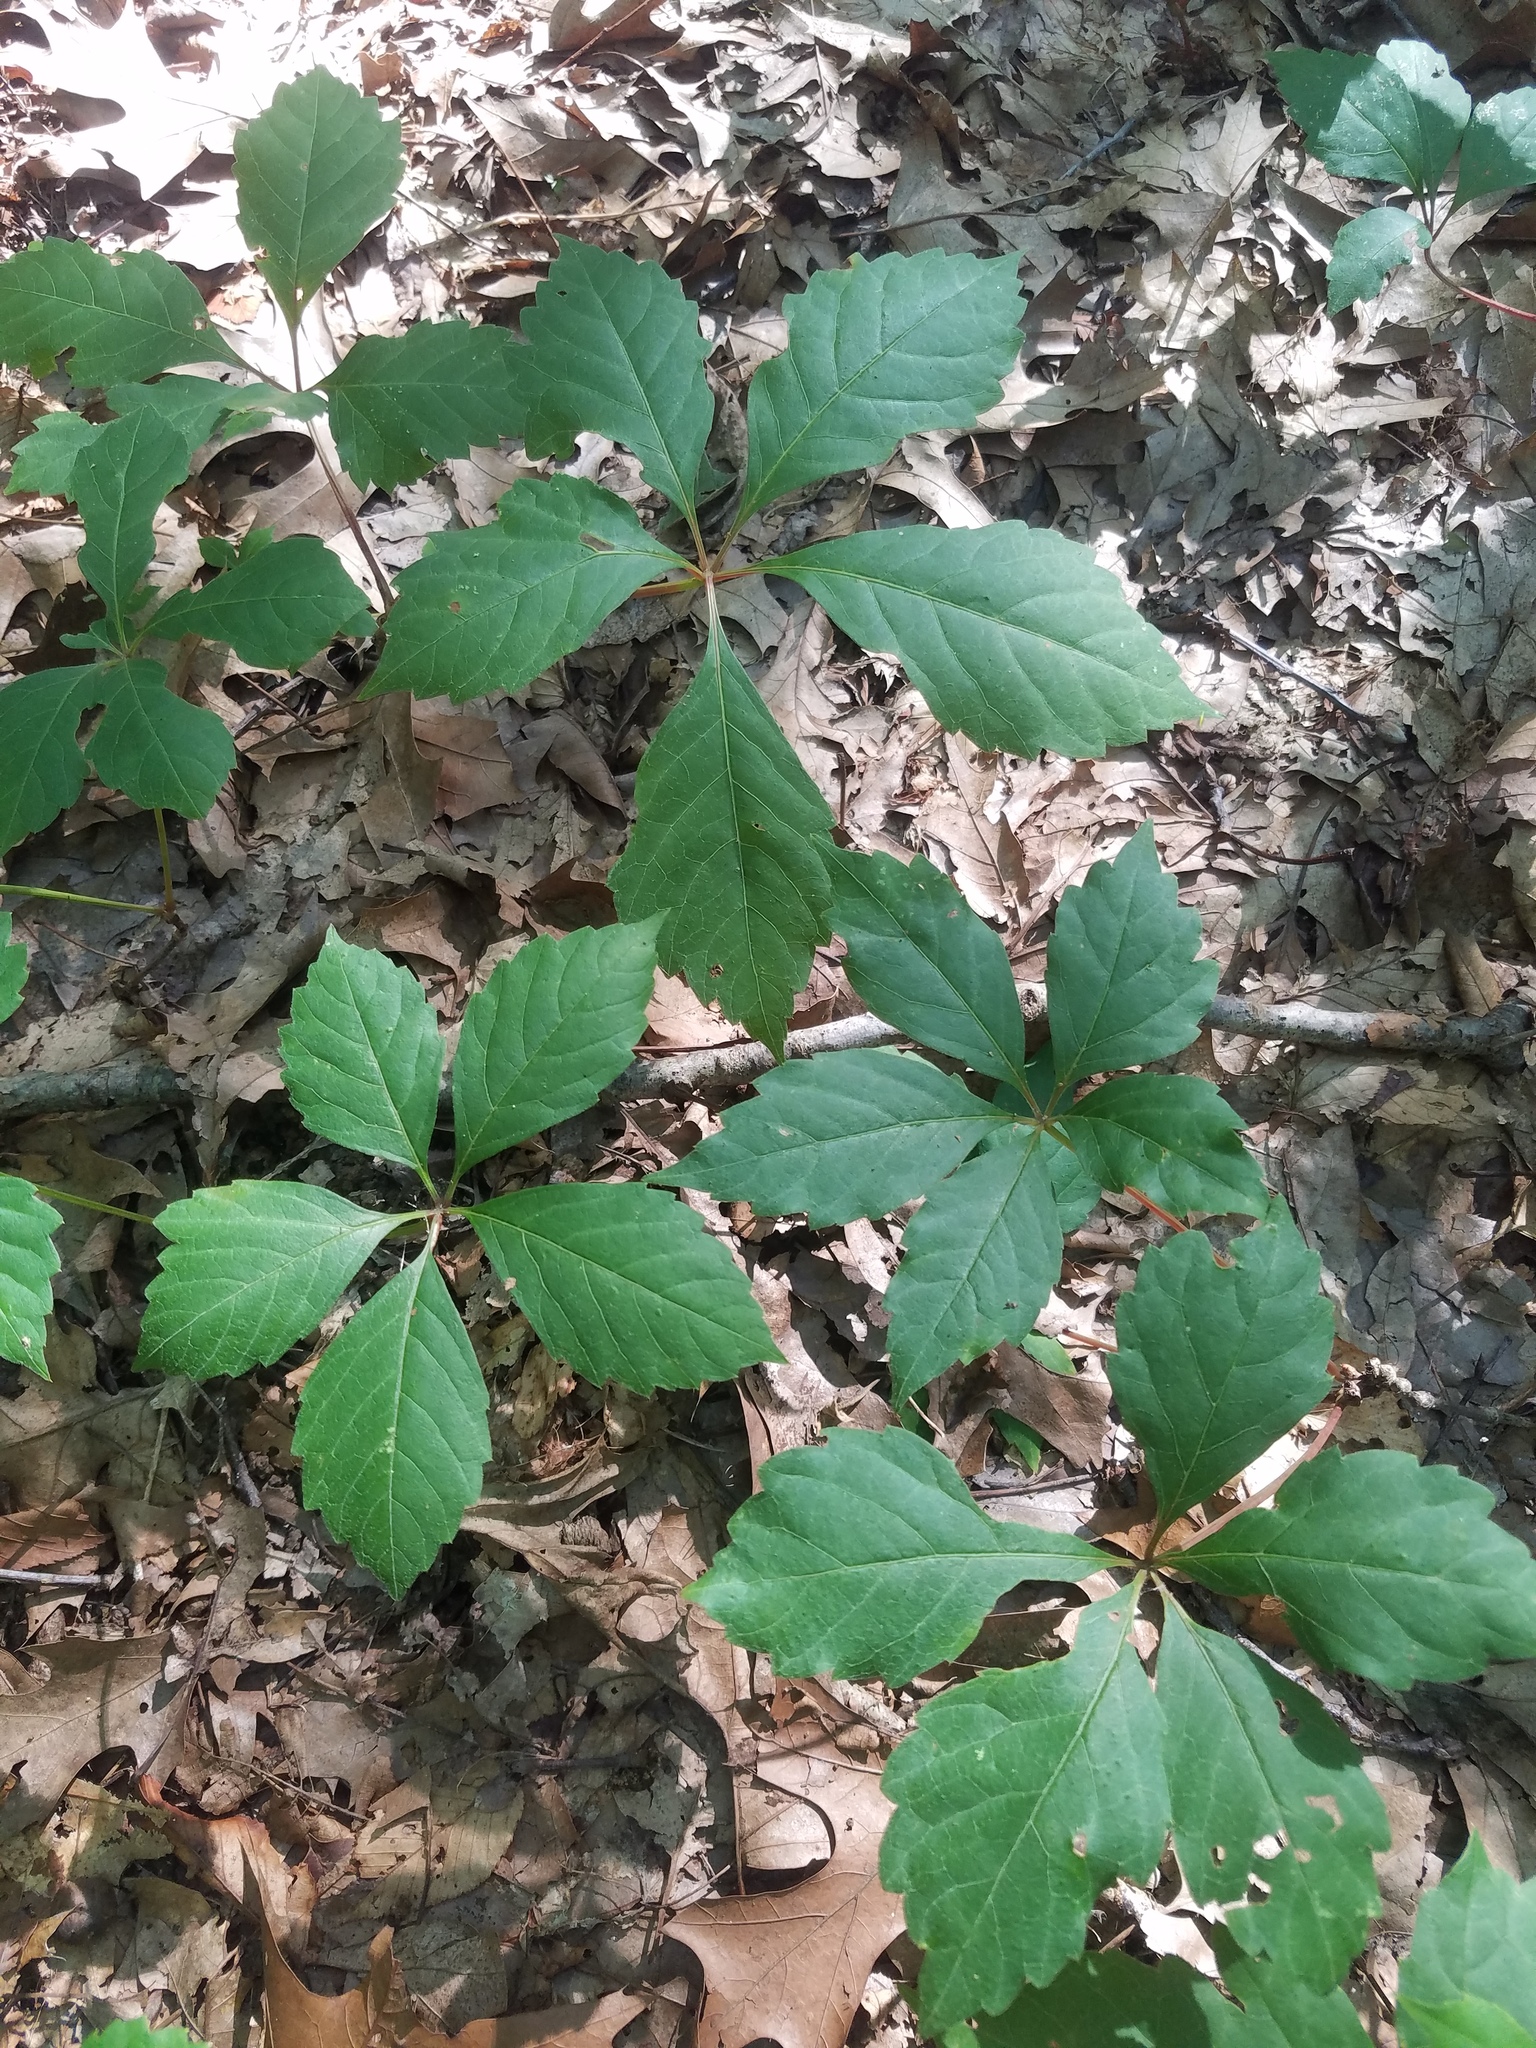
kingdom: Plantae
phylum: Tracheophyta
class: Magnoliopsida
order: Vitales
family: Vitaceae
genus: Parthenocissus
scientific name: Parthenocissus quinquefolia
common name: Virginia-creeper
